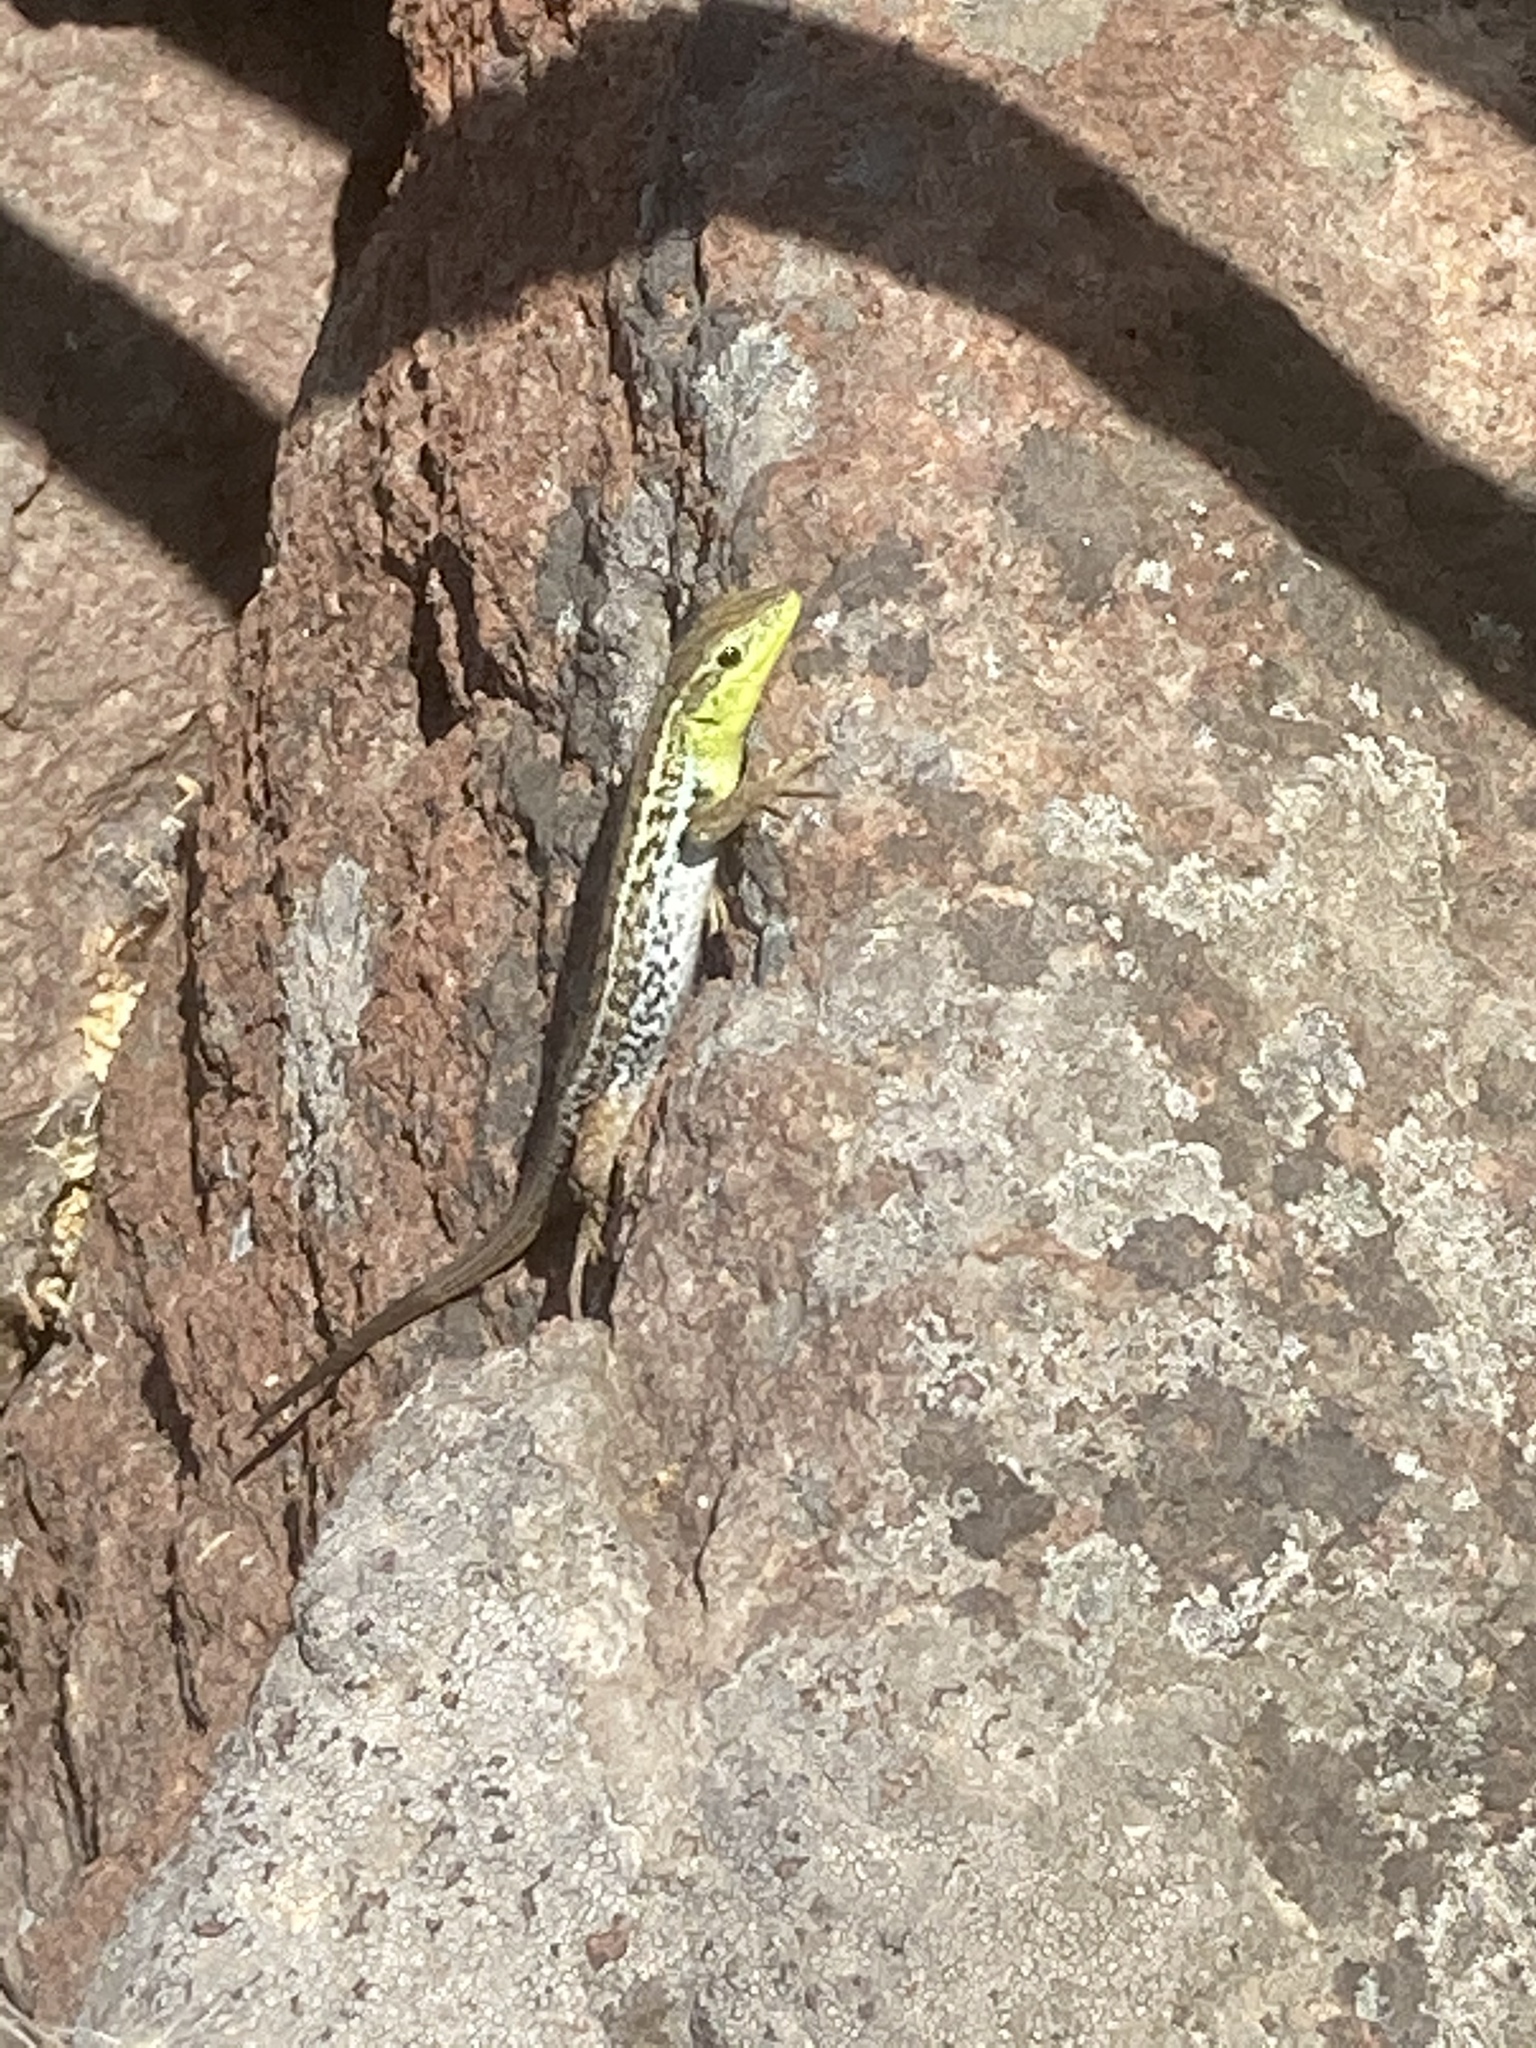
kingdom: Animalia
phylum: Chordata
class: Squamata
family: Lacertidae
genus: Ophisops
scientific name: Ophisops elegans
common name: Snake-eyed lizard
